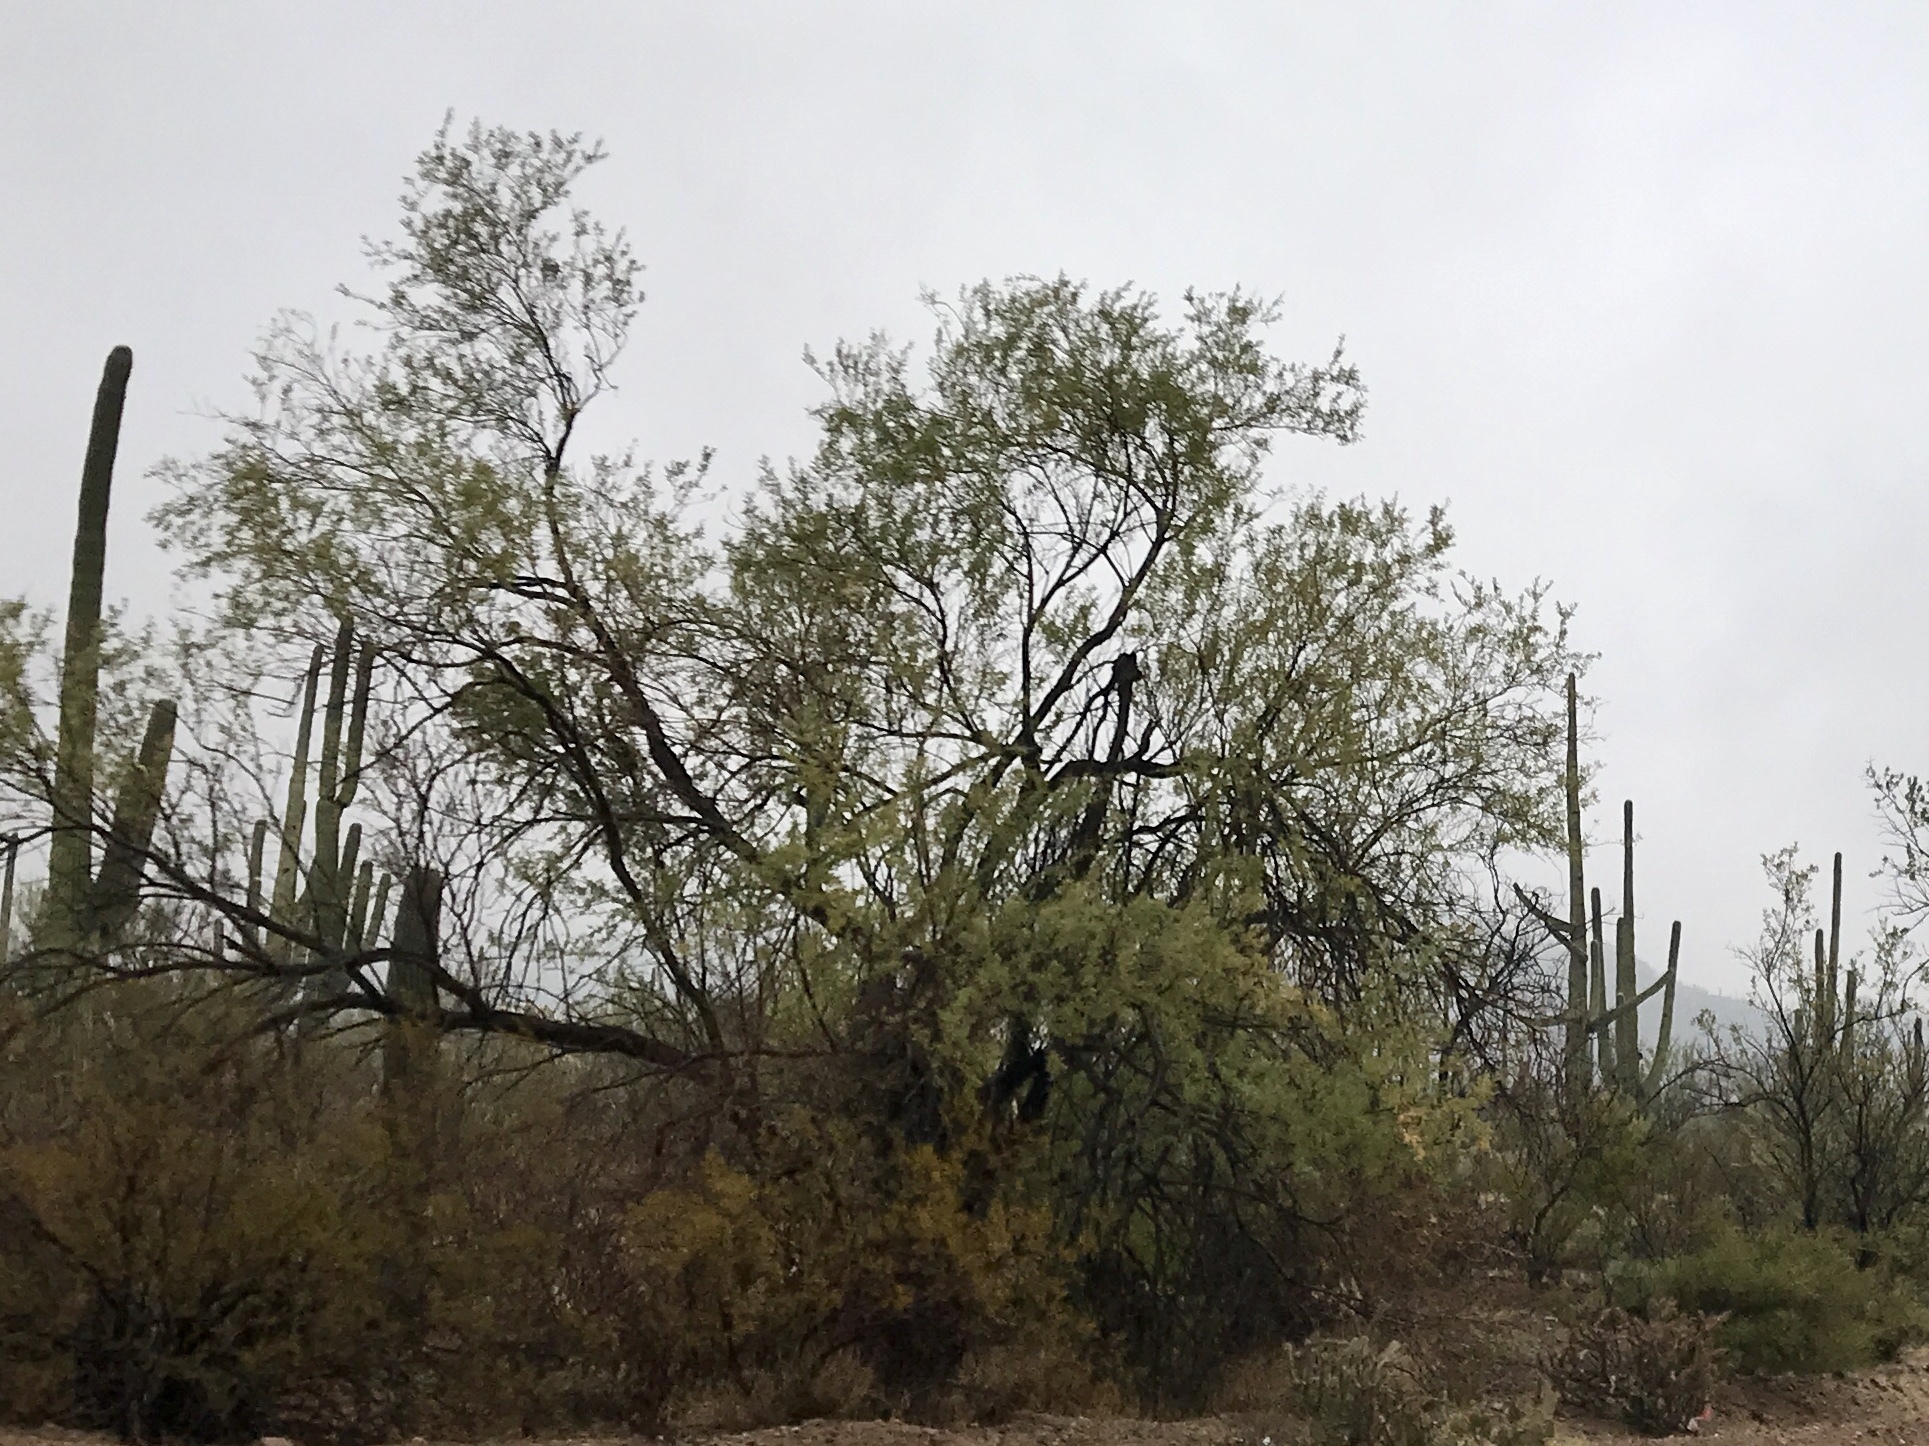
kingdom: Plantae
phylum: Tracheophyta
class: Magnoliopsida
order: Fabales
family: Fabaceae
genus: Olneya
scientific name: Olneya tesota
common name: Desert ironwood
